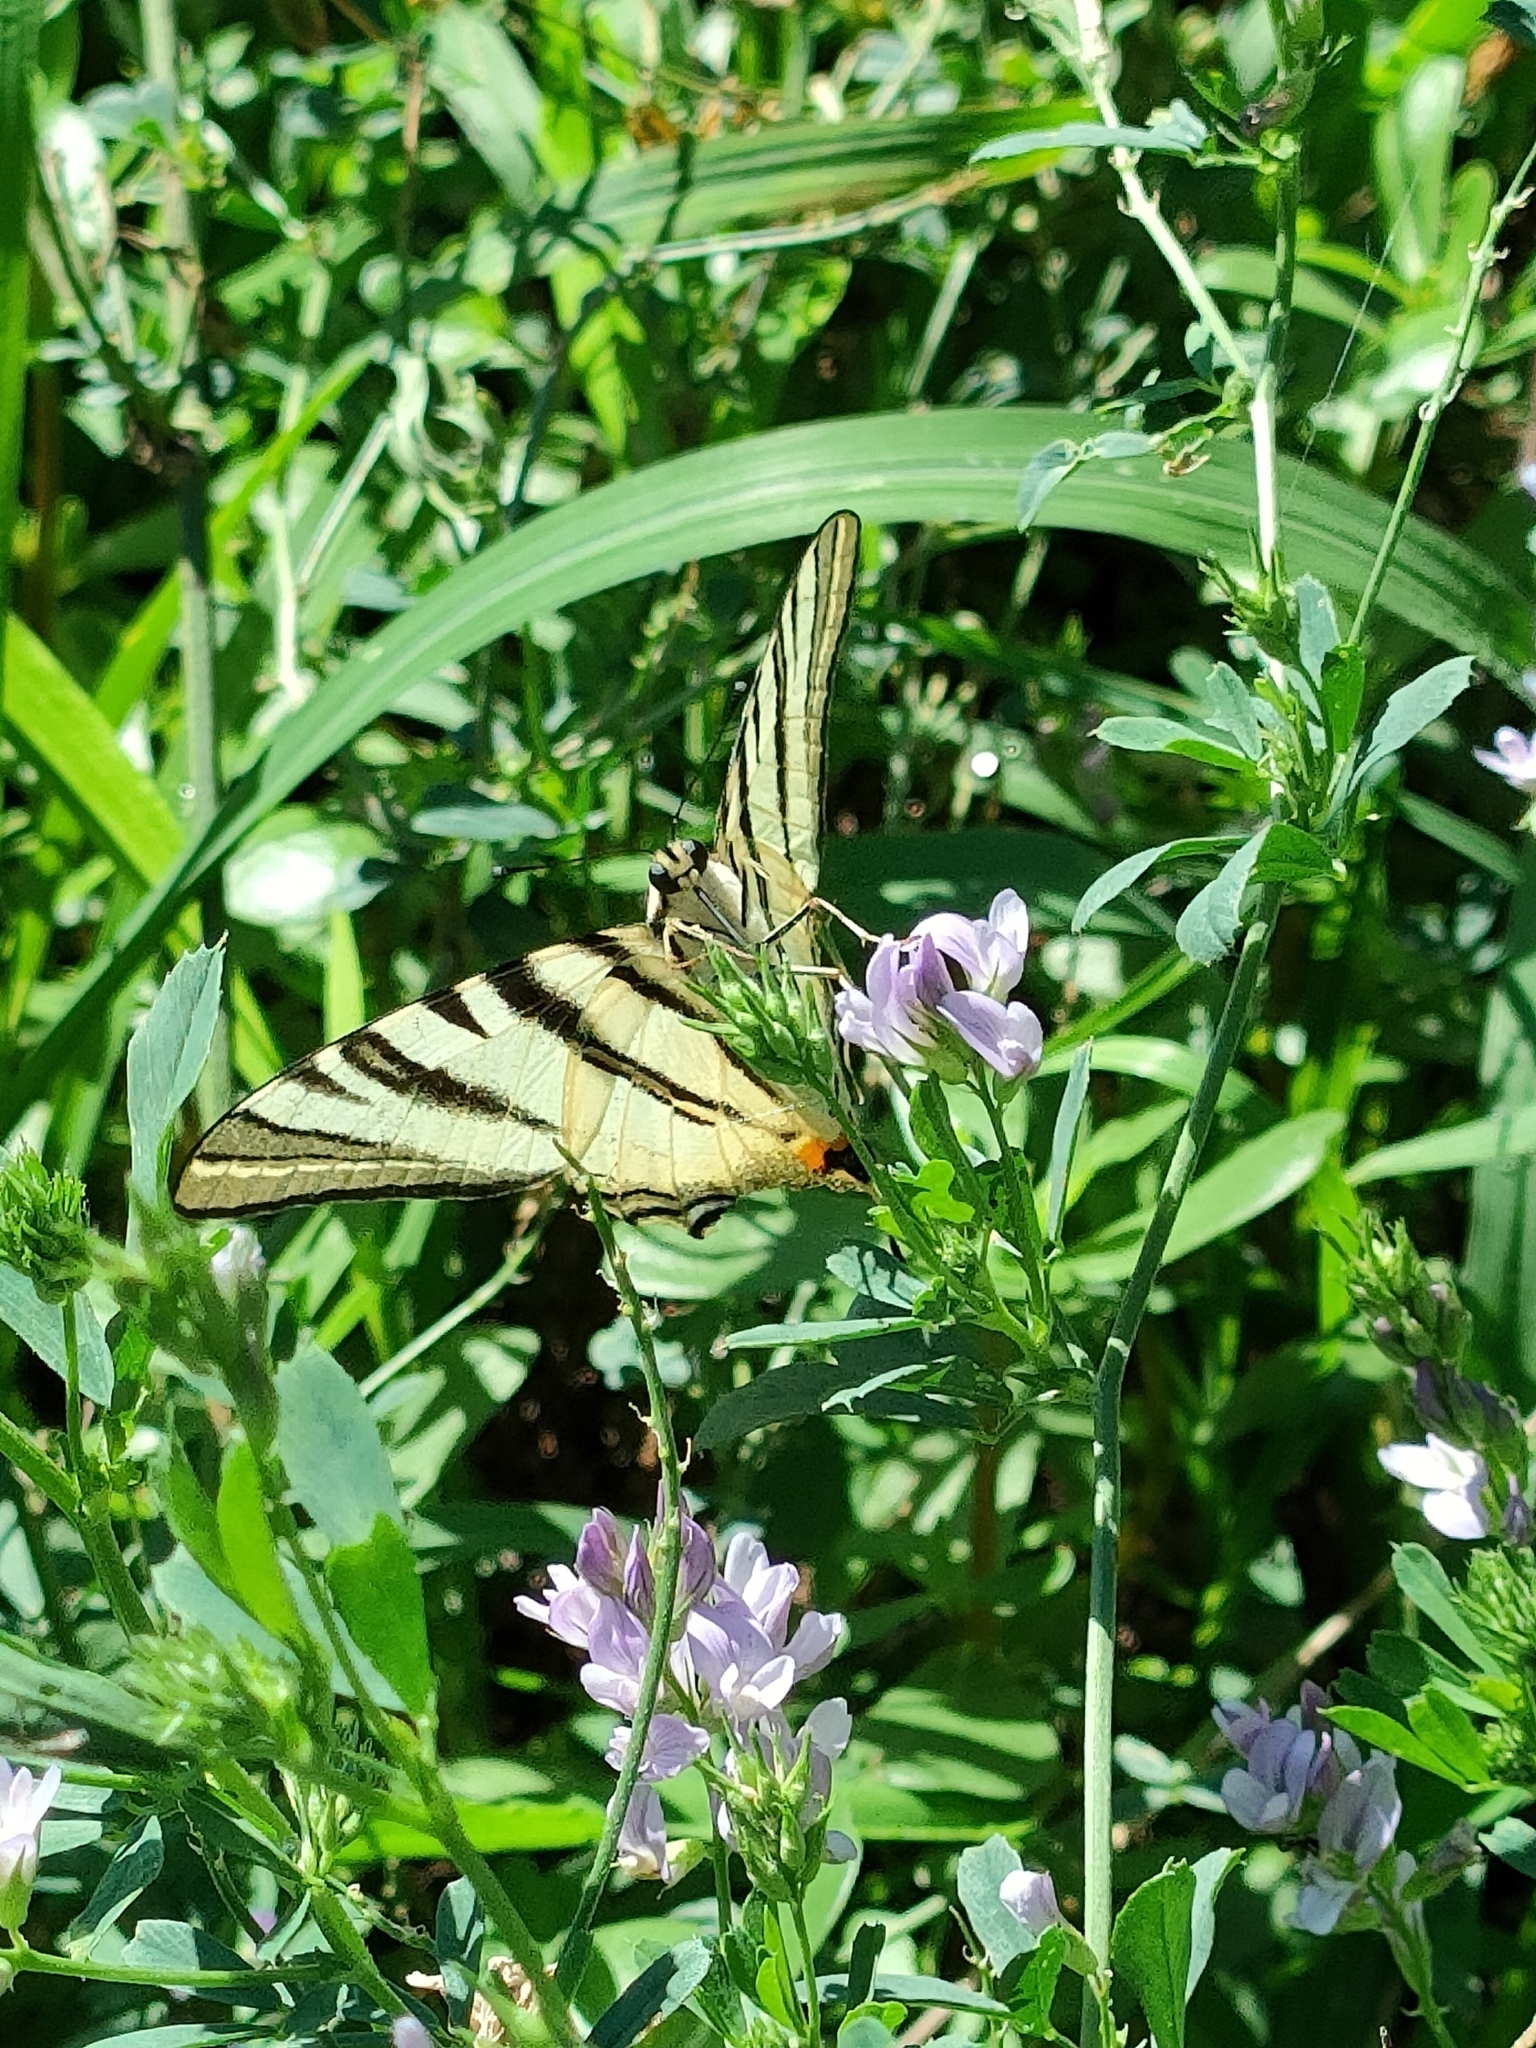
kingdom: Animalia
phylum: Arthropoda
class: Insecta
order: Lepidoptera
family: Papilionidae
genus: Iphiclides
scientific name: Iphiclides podalirius
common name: Scarce swallowtail
